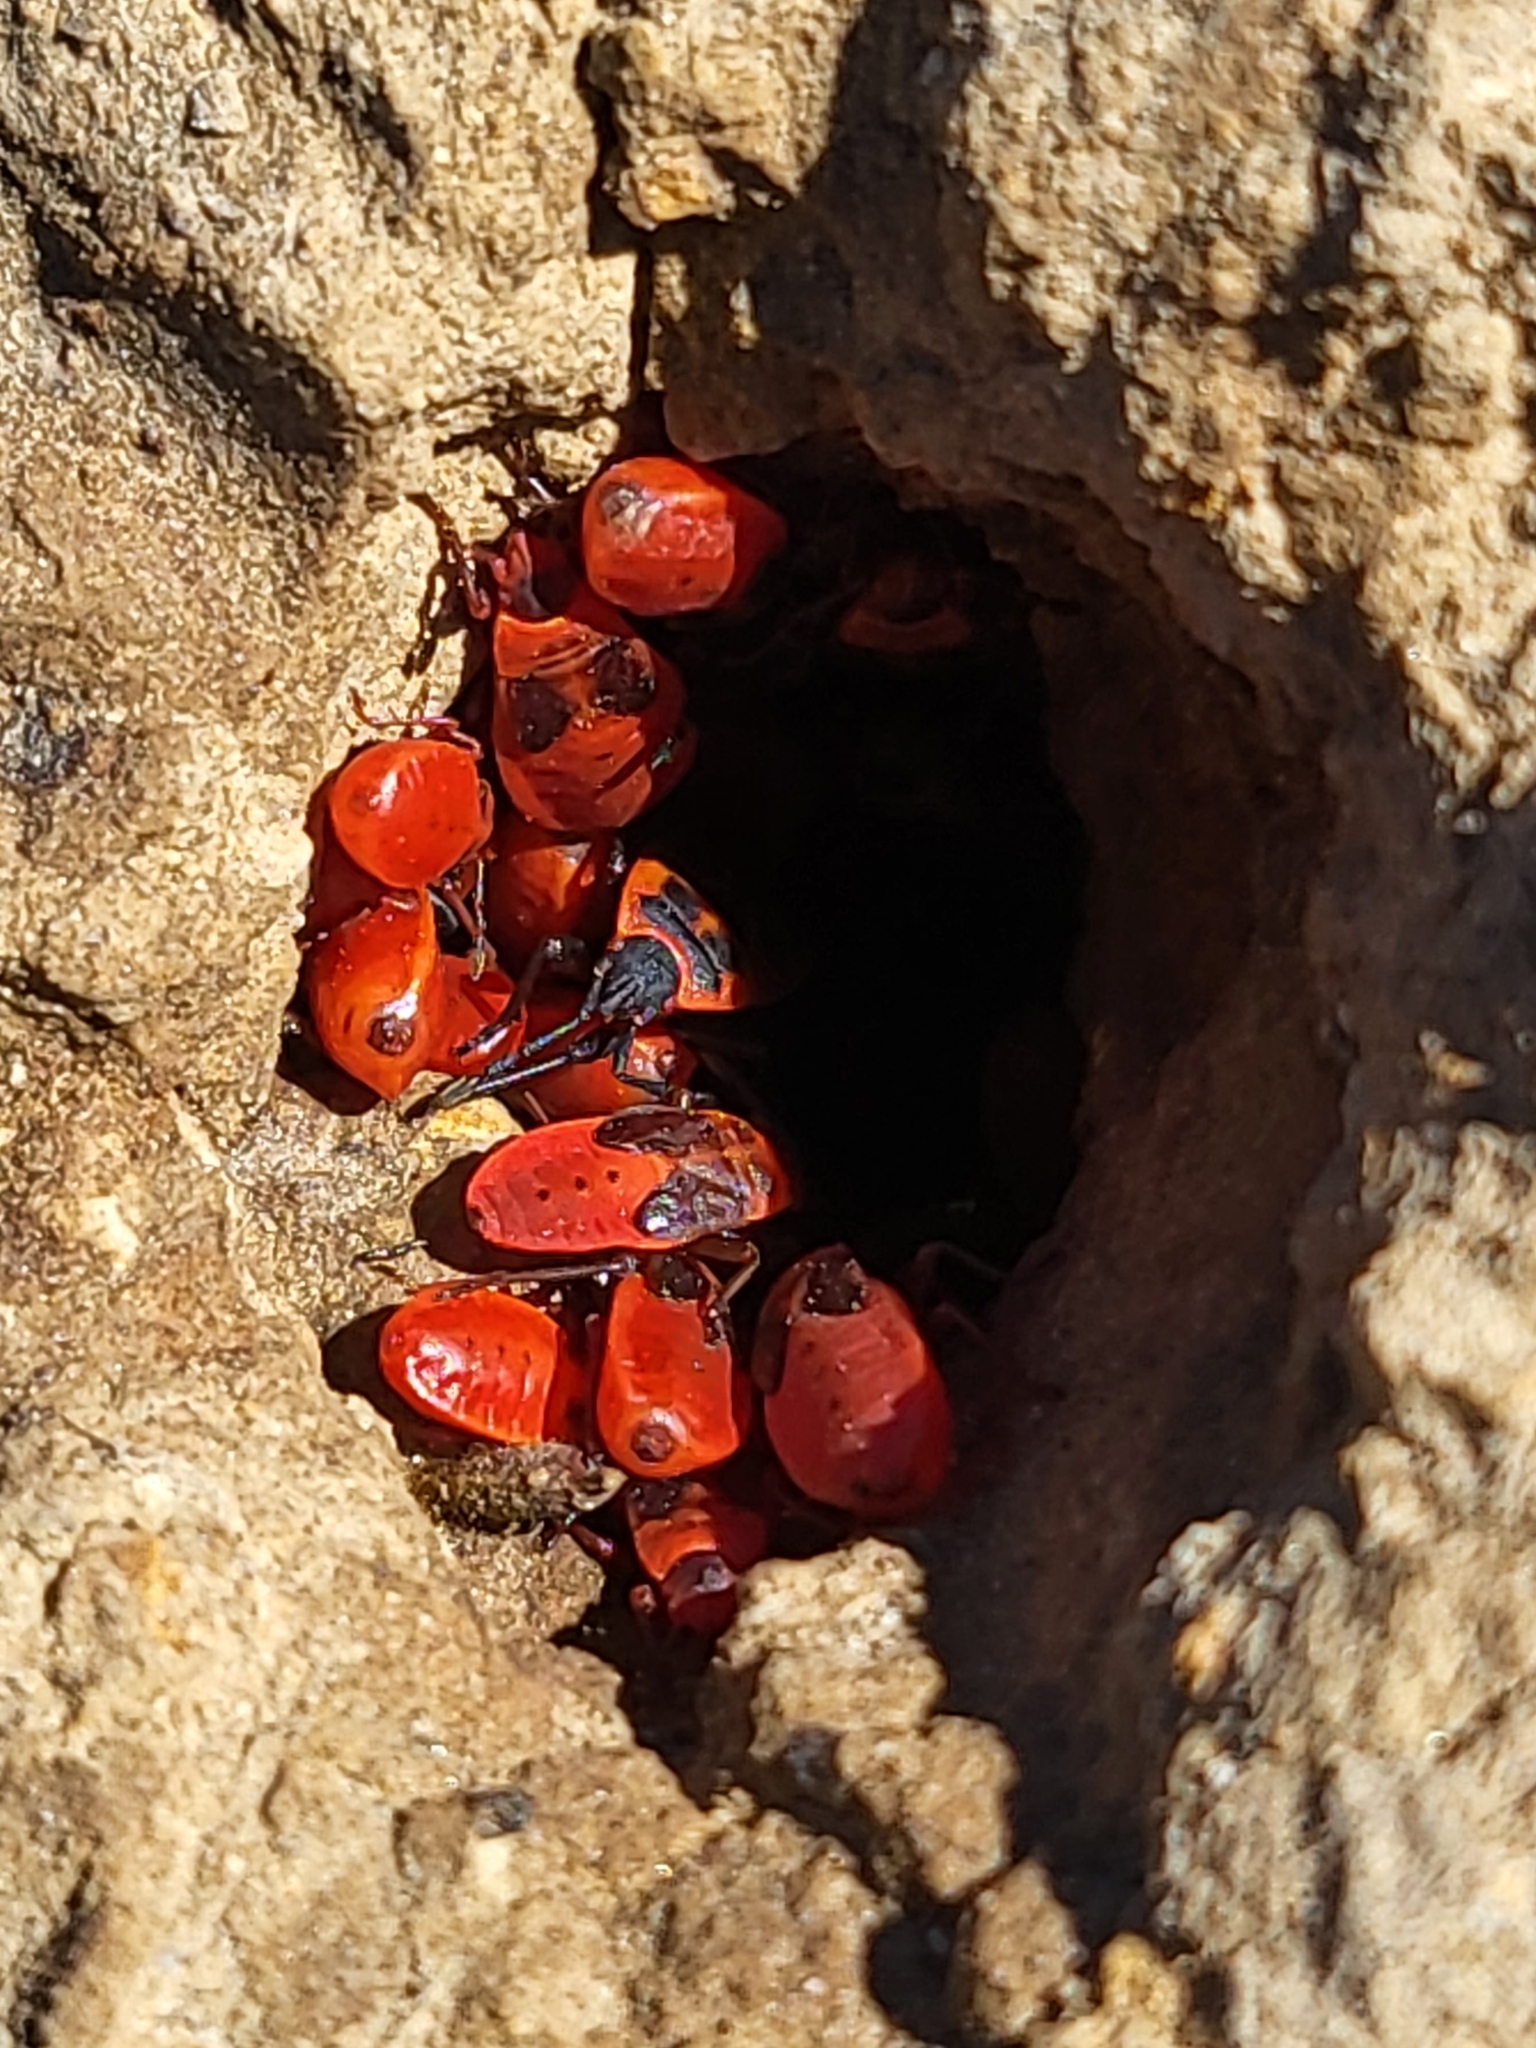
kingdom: Animalia
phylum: Arthropoda
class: Insecta
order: Hemiptera
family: Pyrrhocoridae
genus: Scantius
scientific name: Scantius aegyptius
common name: Red bug
